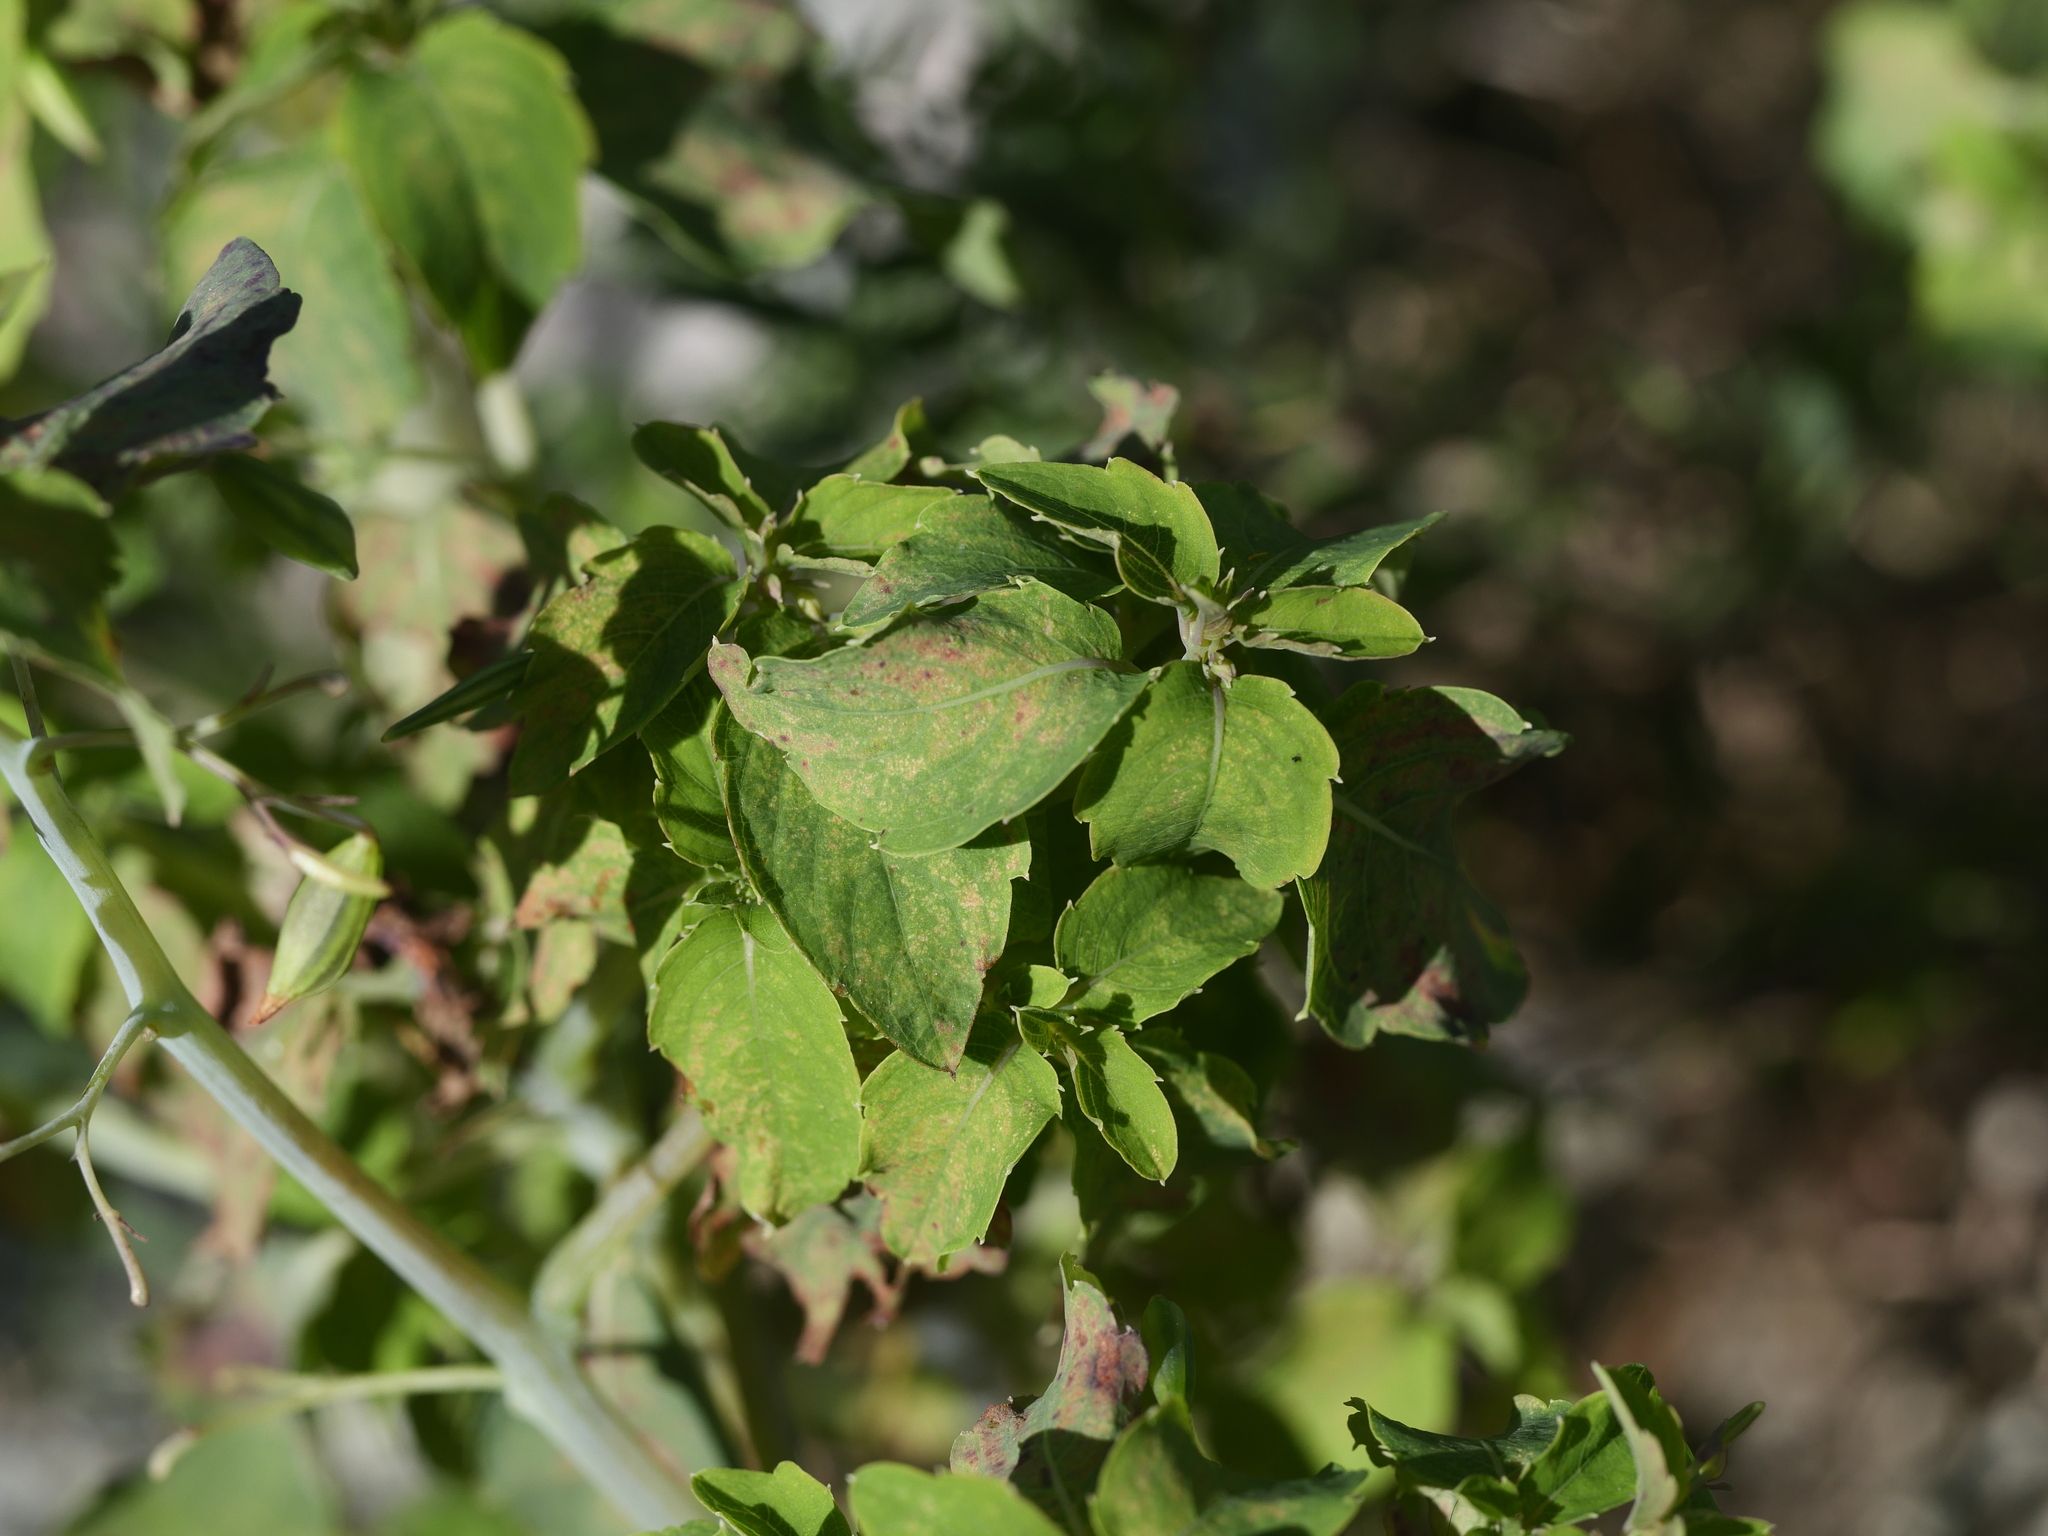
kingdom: Plantae
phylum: Tracheophyta
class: Magnoliopsida
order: Ericales
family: Balsaminaceae
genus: Impatiens
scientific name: Impatiens capensis
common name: Orange balsam
